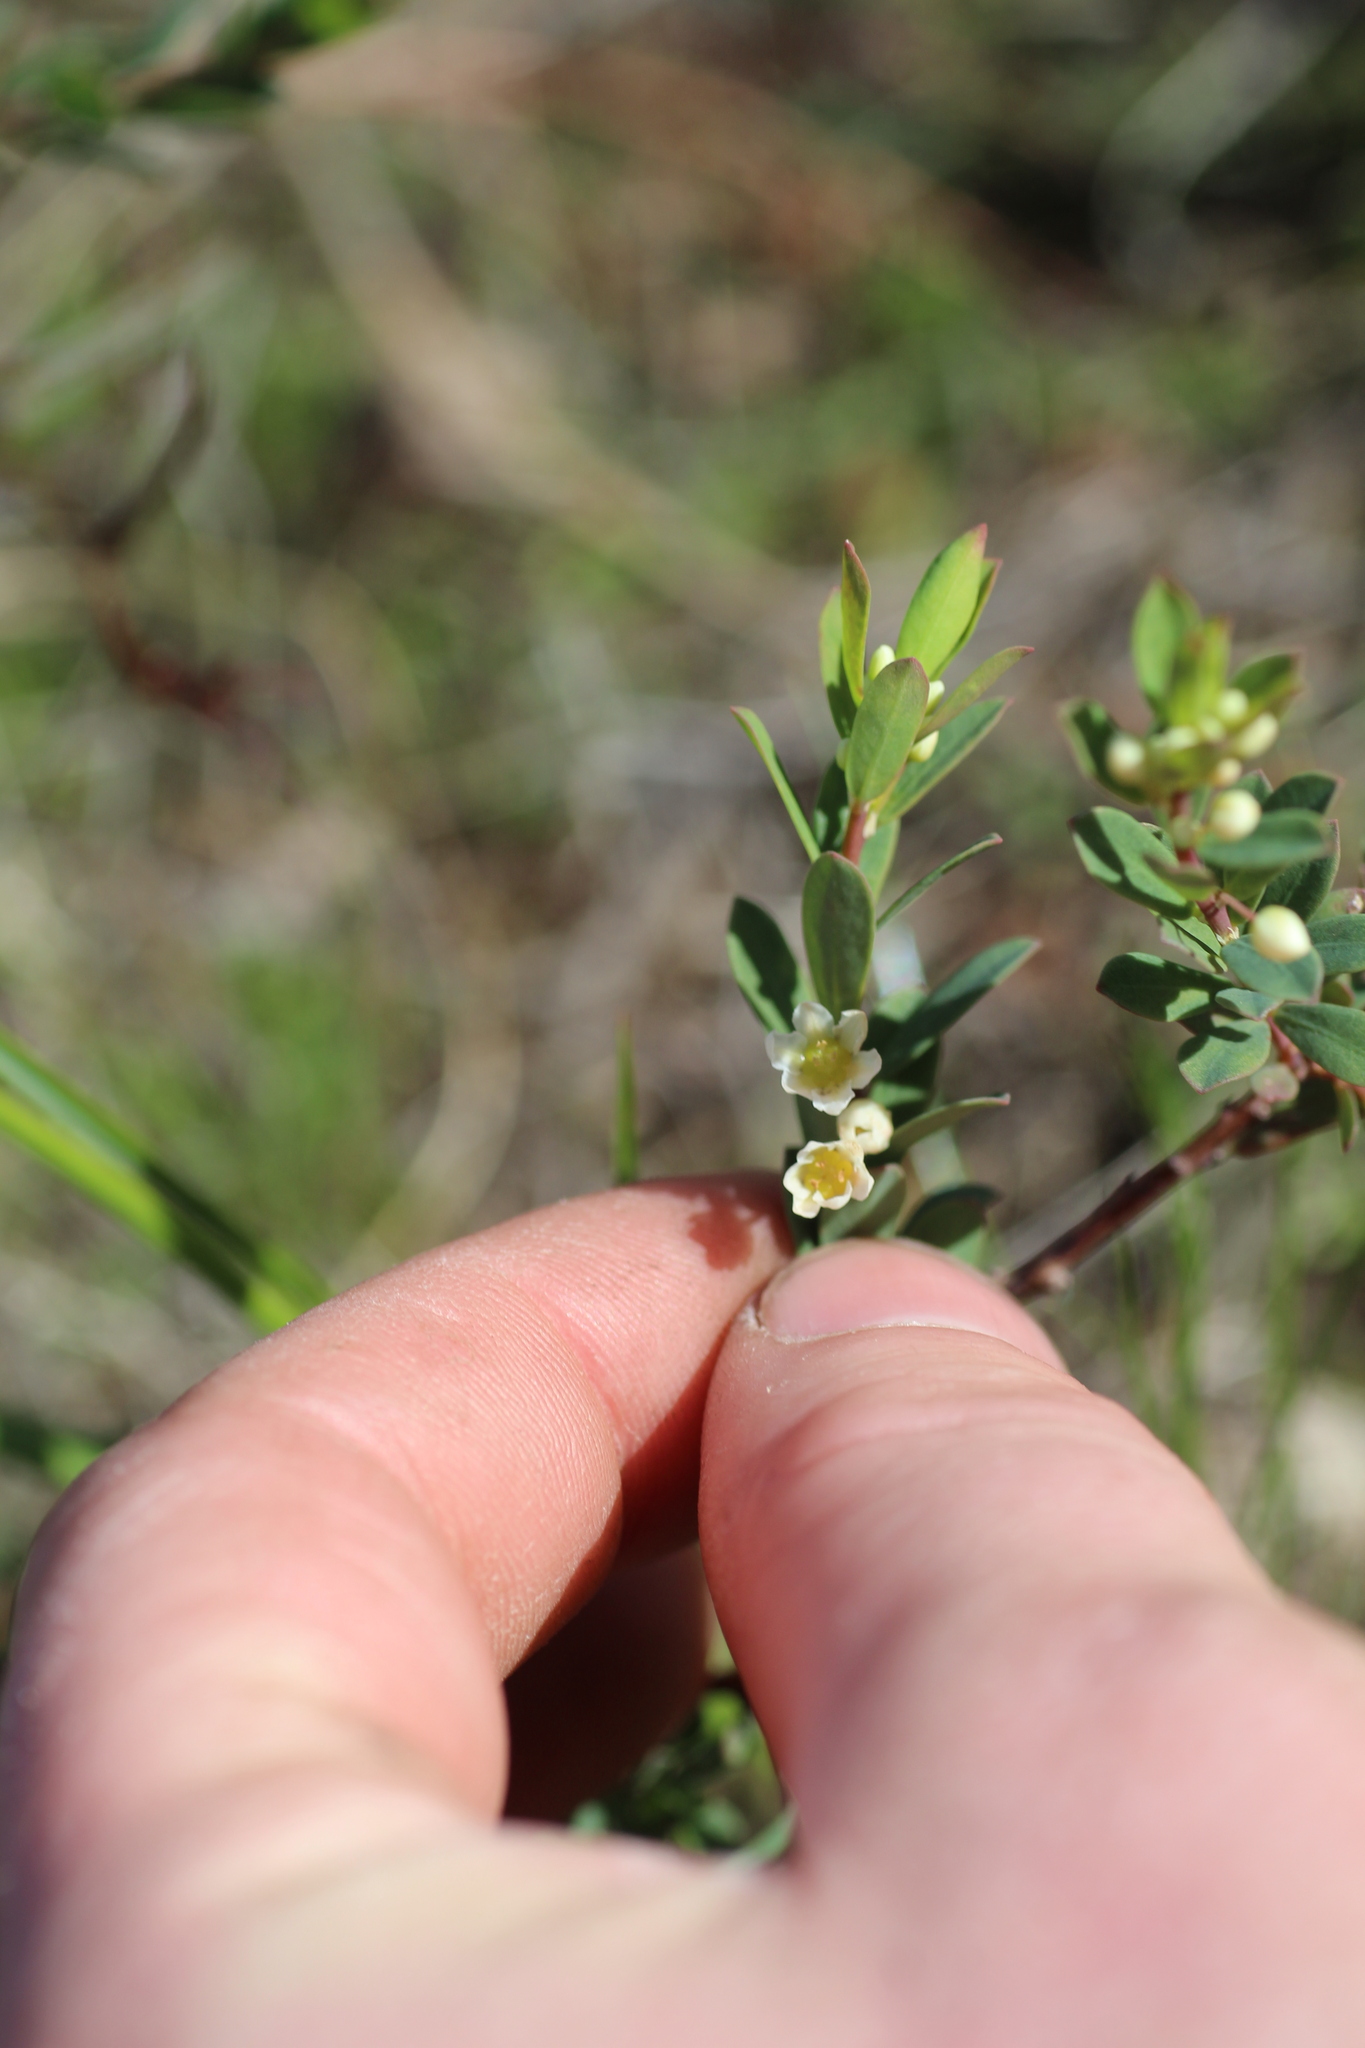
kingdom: Plantae
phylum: Tracheophyta
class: Magnoliopsida
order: Malpighiales
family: Phyllanthaceae
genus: Phyllanthus
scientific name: Phyllanthus calycinus
